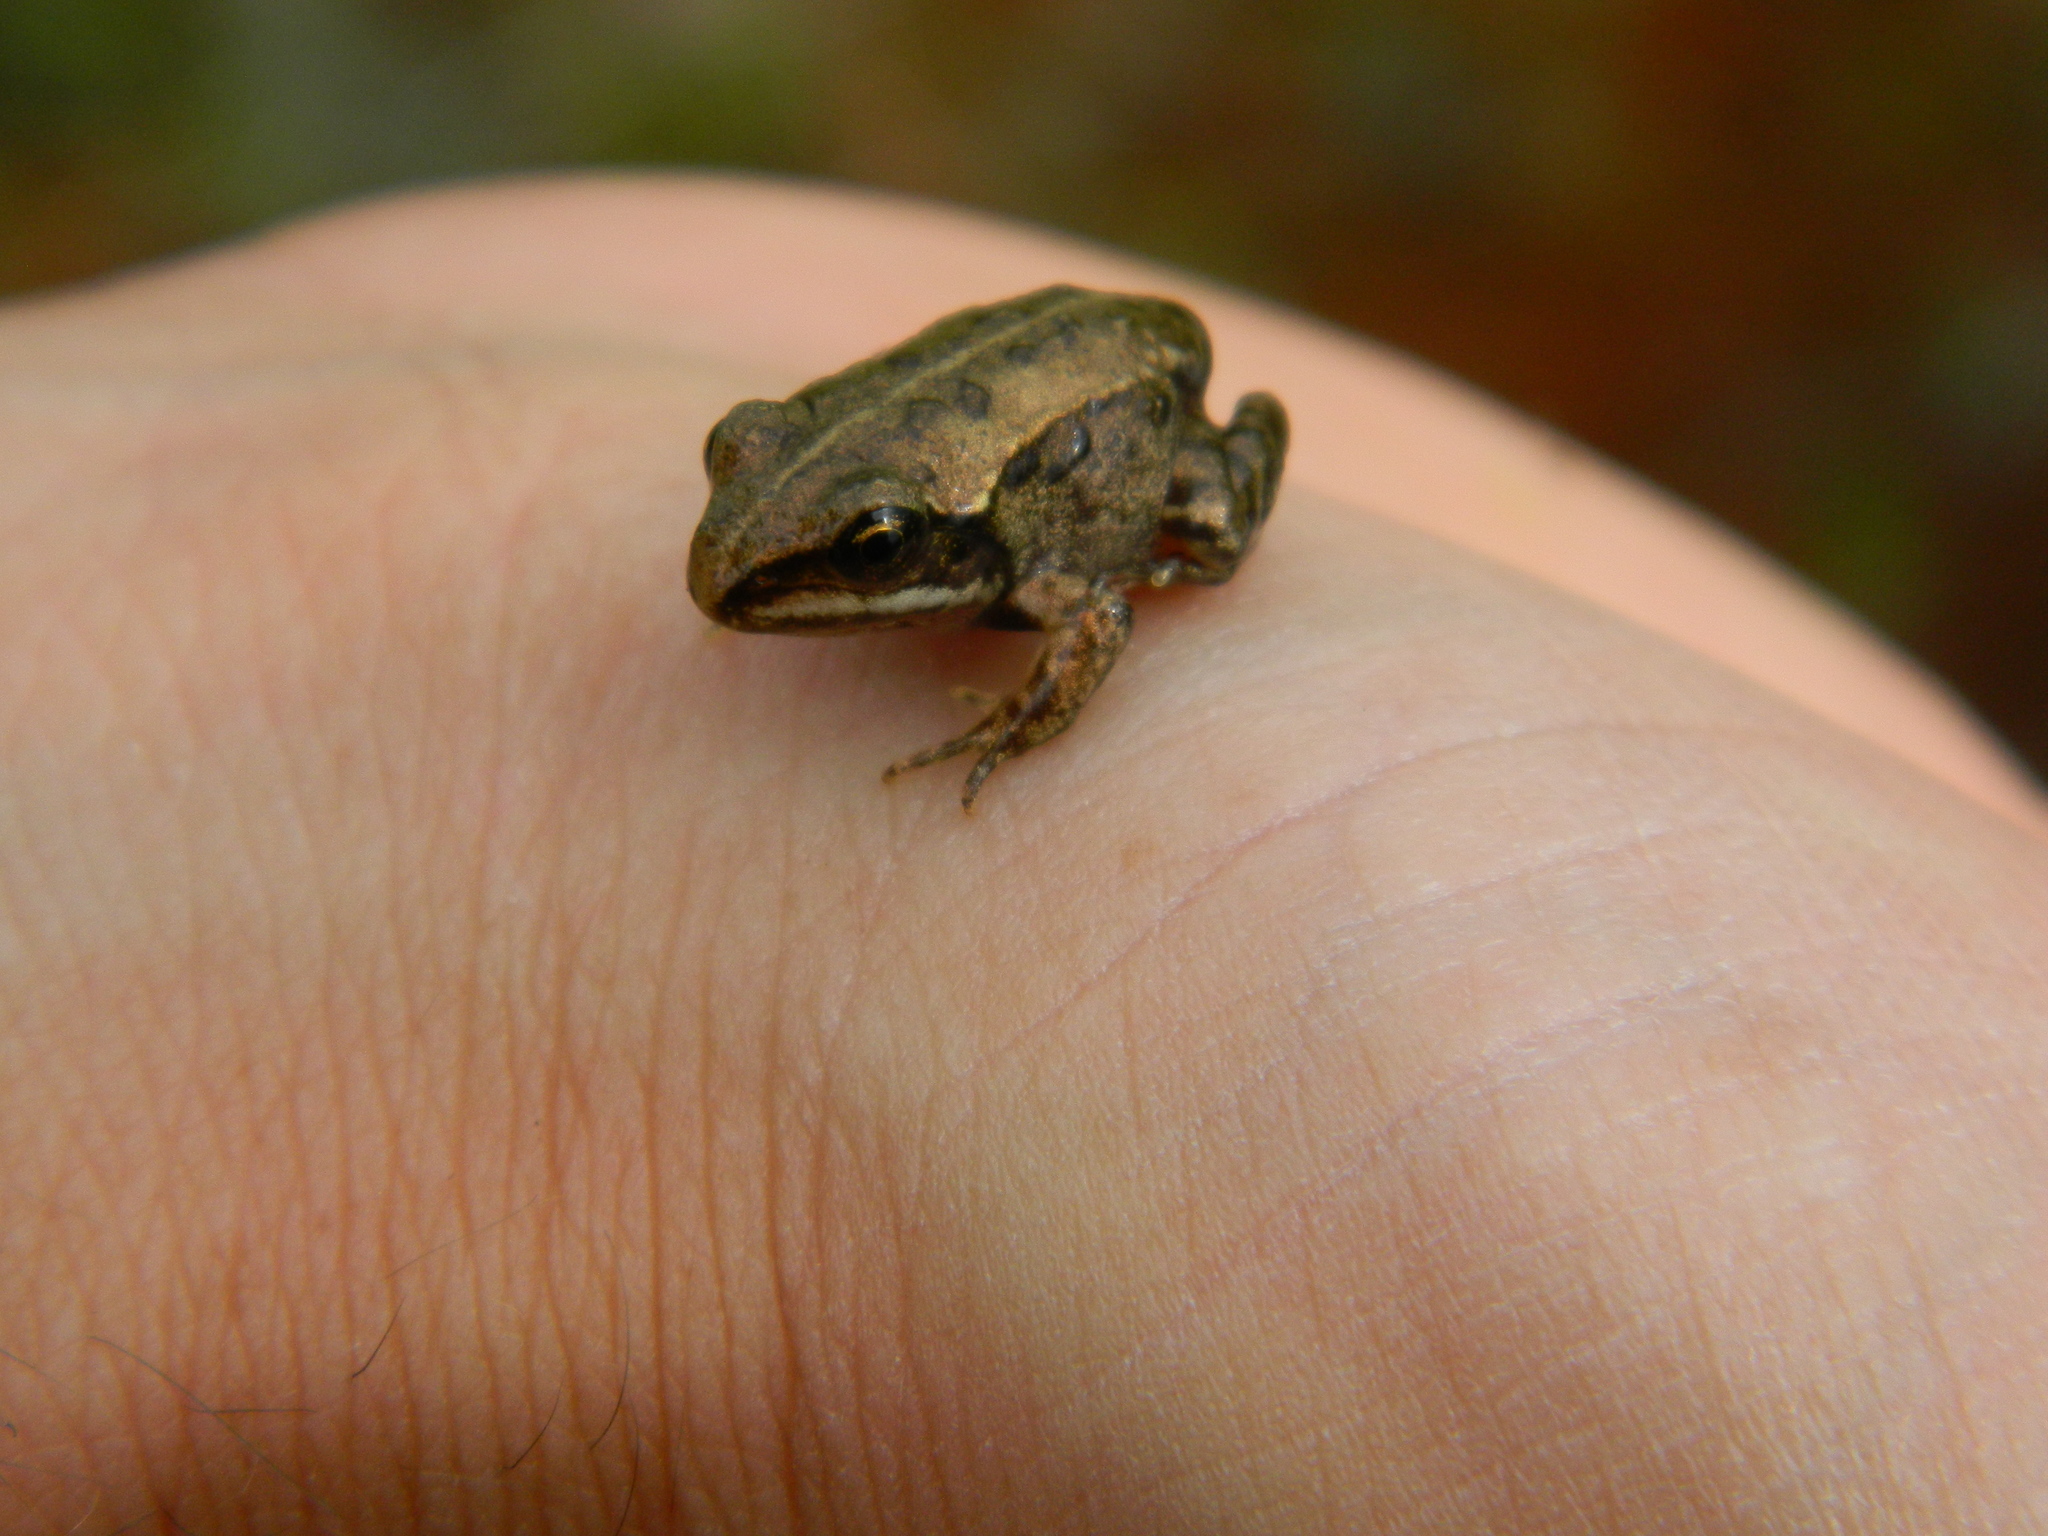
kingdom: Animalia
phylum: Chordata
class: Amphibia
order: Anura
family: Ranidae
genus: Lithobates
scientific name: Lithobates sylvaticus
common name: Wood frog
